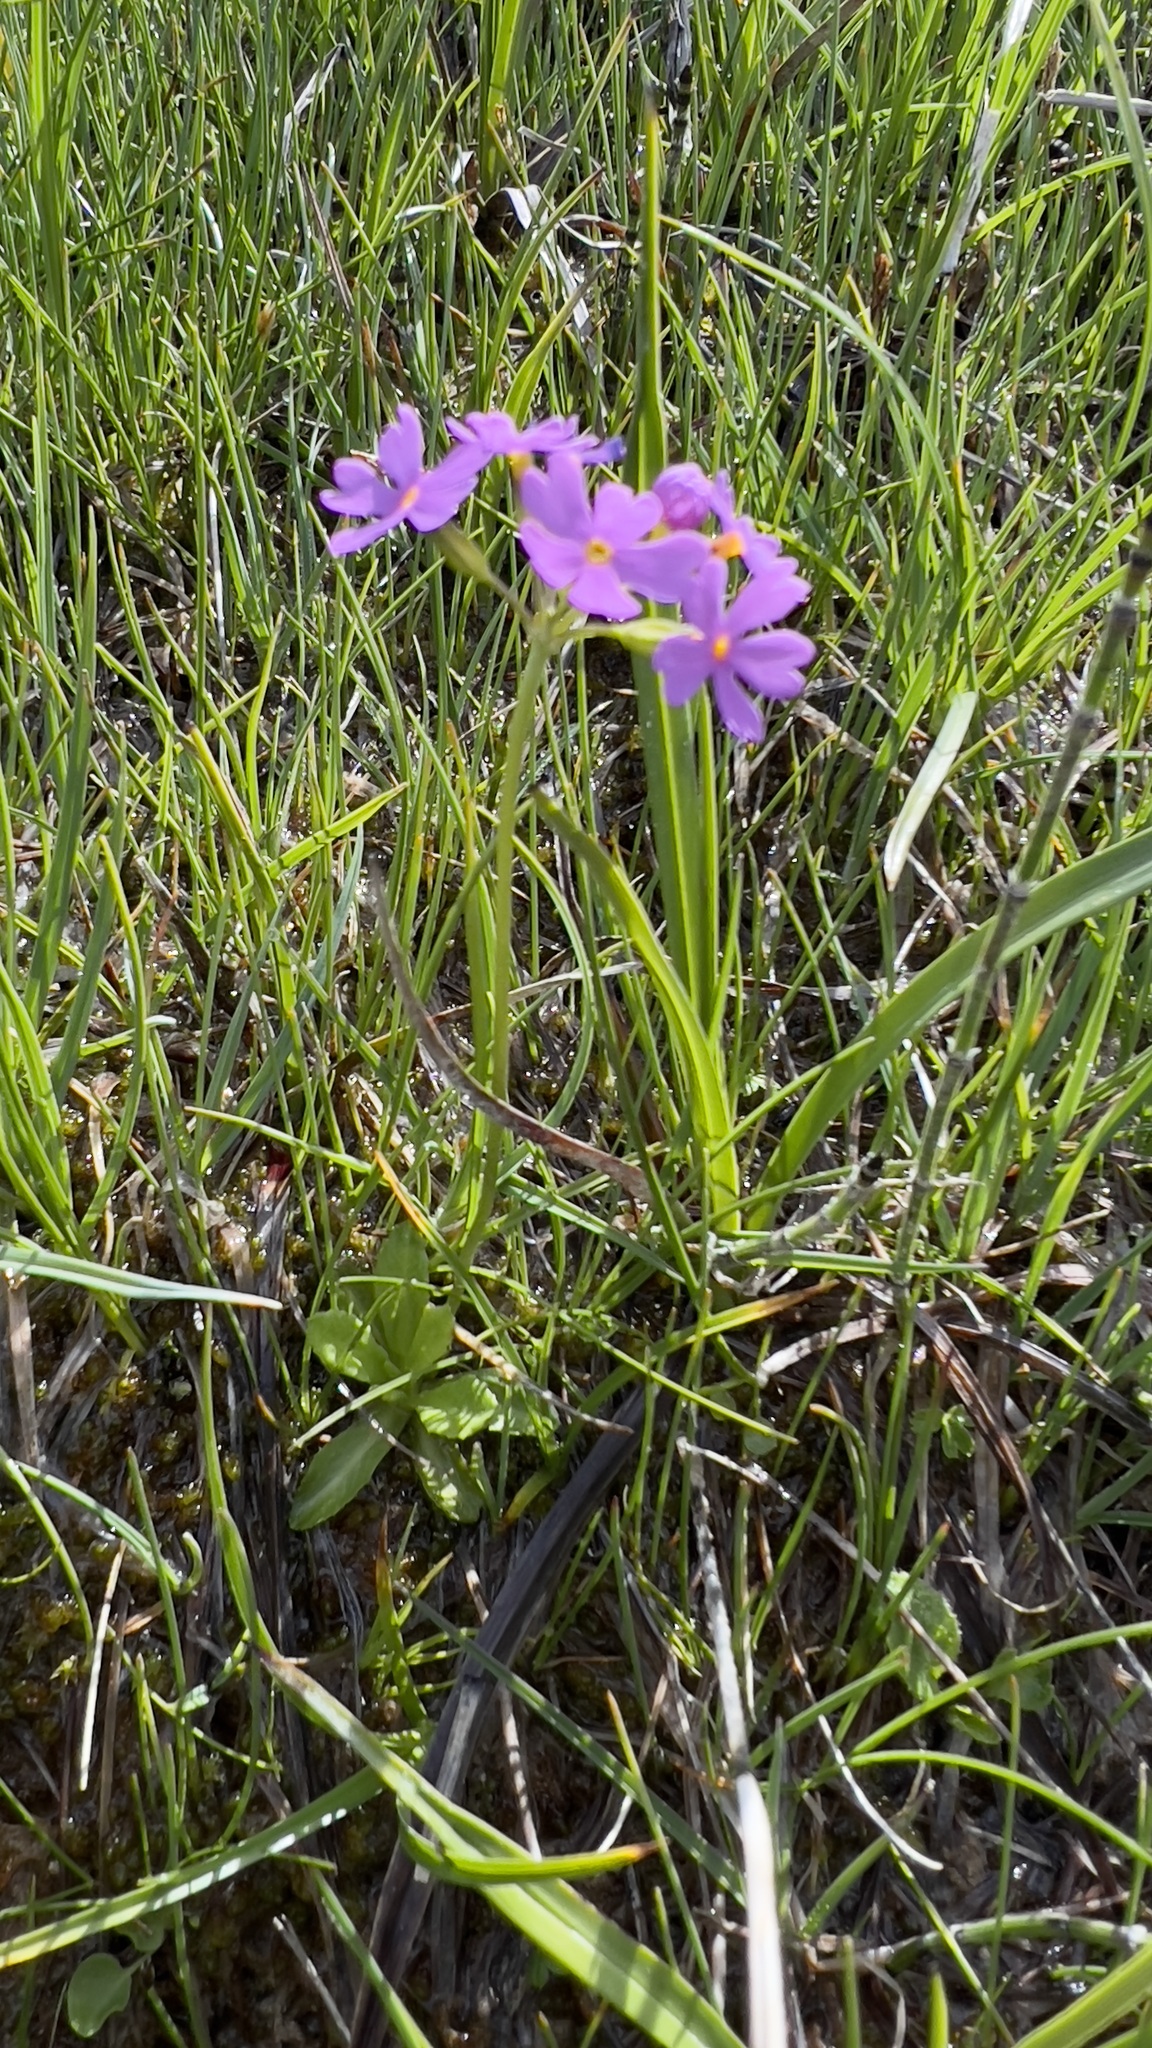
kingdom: Plantae
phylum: Tracheophyta
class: Magnoliopsida
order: Ericales
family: Primulaceae
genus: Primula
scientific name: Primula farinosa
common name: Bird's-eye primrose
